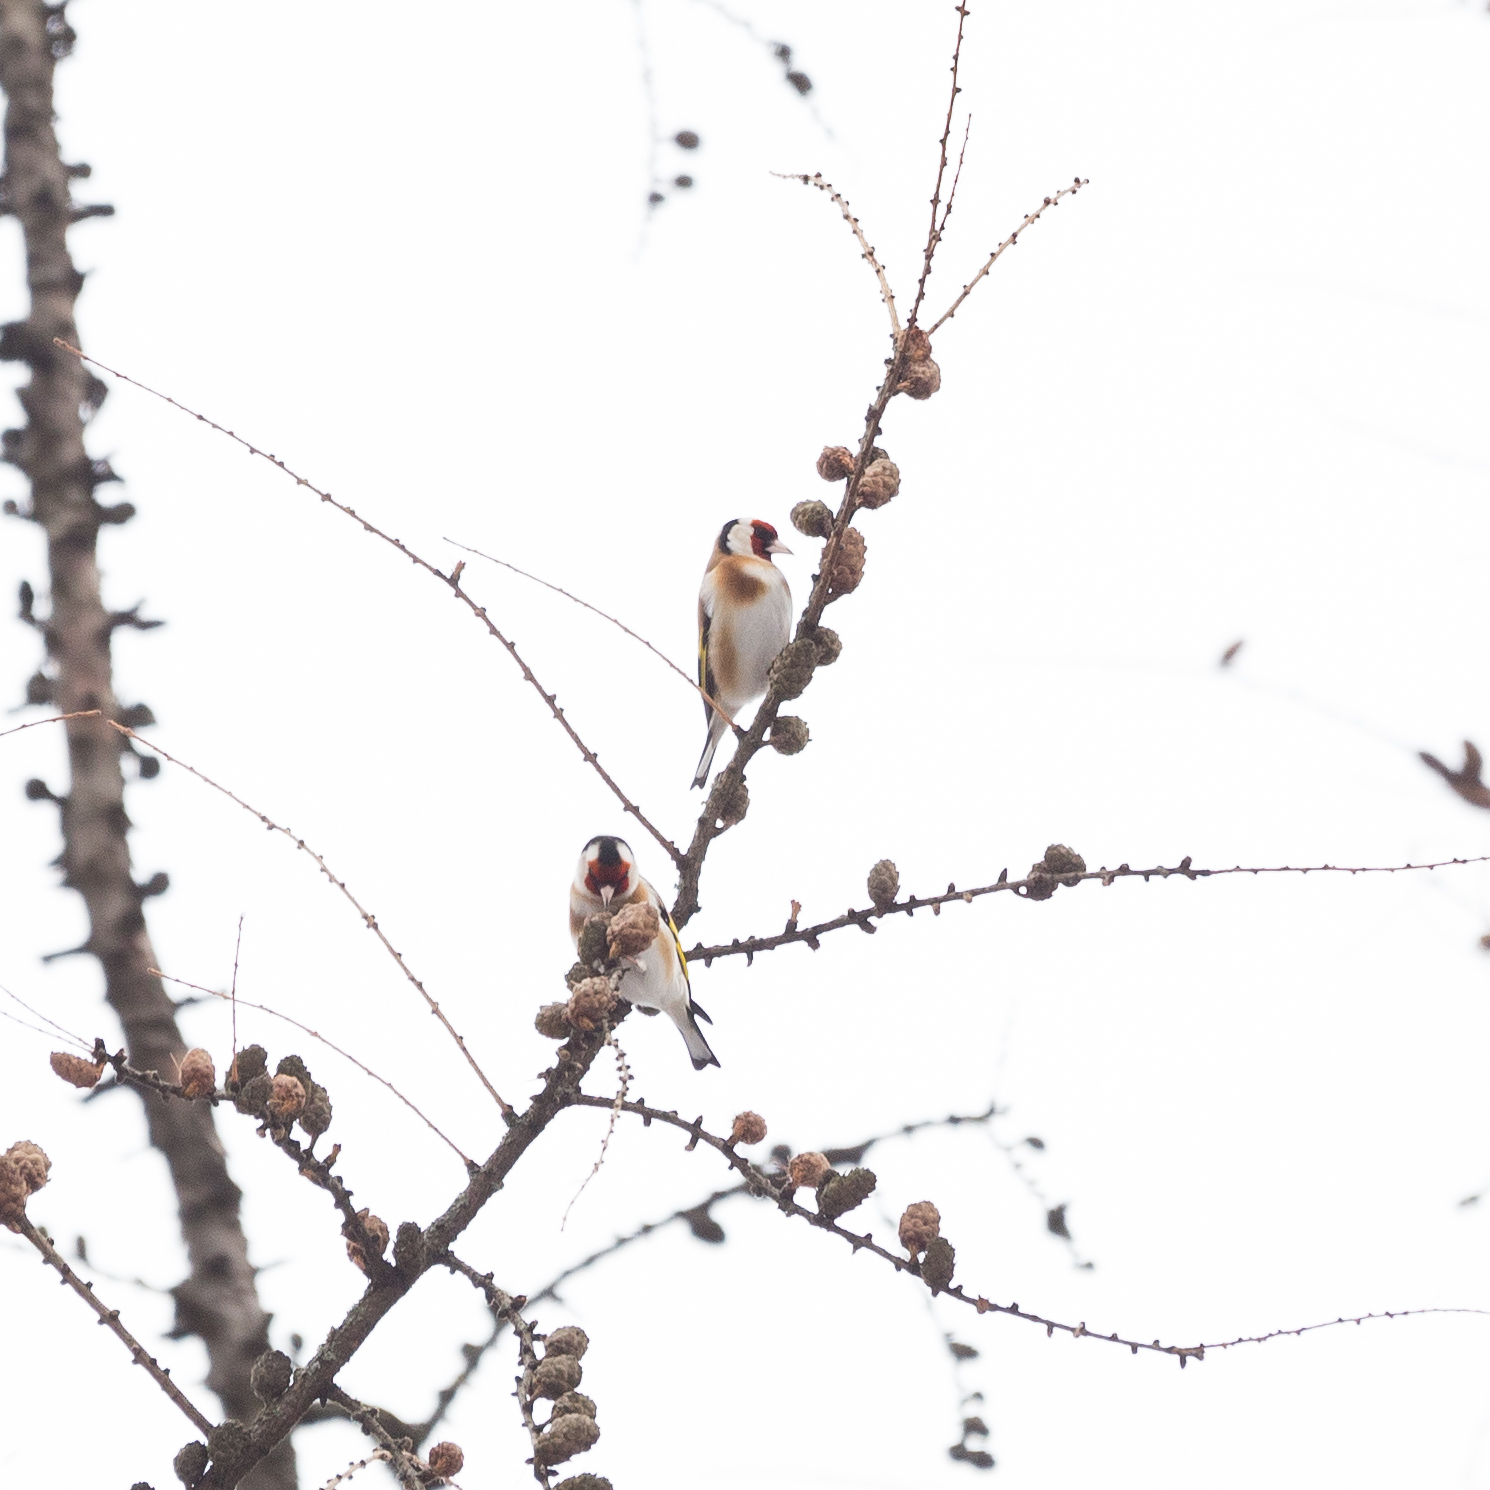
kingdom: Animalia
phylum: Chordata
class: Aves
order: Passeriformes
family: Fringillidae
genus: Carduelis
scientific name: Carduelis carduelis
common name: European goldfinch
